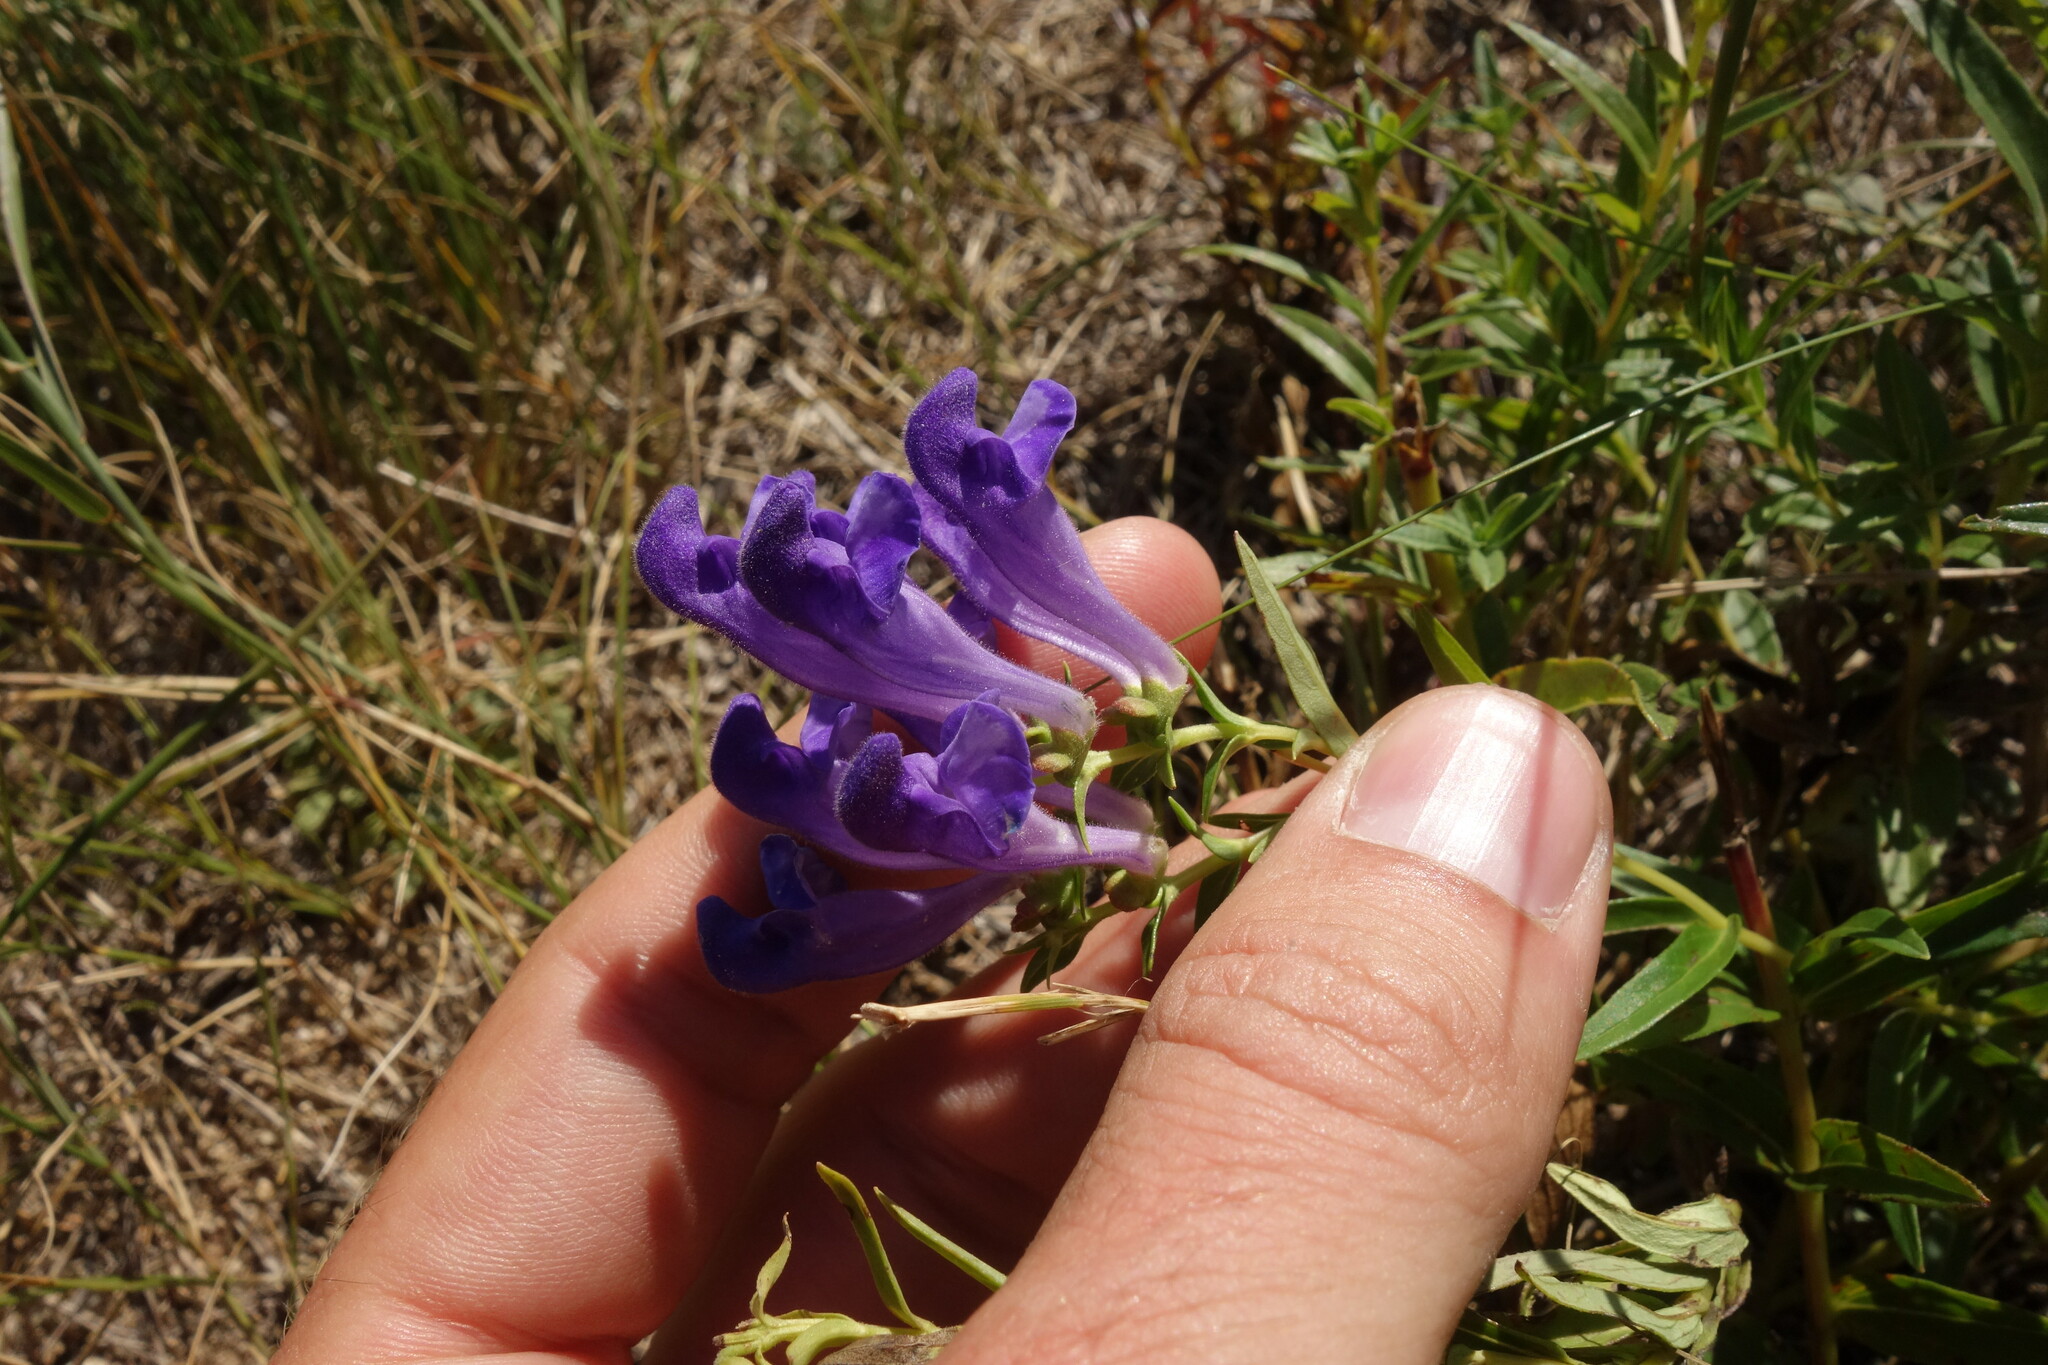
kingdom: Plantae
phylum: Tracheophyta
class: Magnoliopsida
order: Lamiales
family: Lamiaceae
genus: Scutellaria
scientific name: Scutellaria baicalensis
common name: Baikal skullcap
